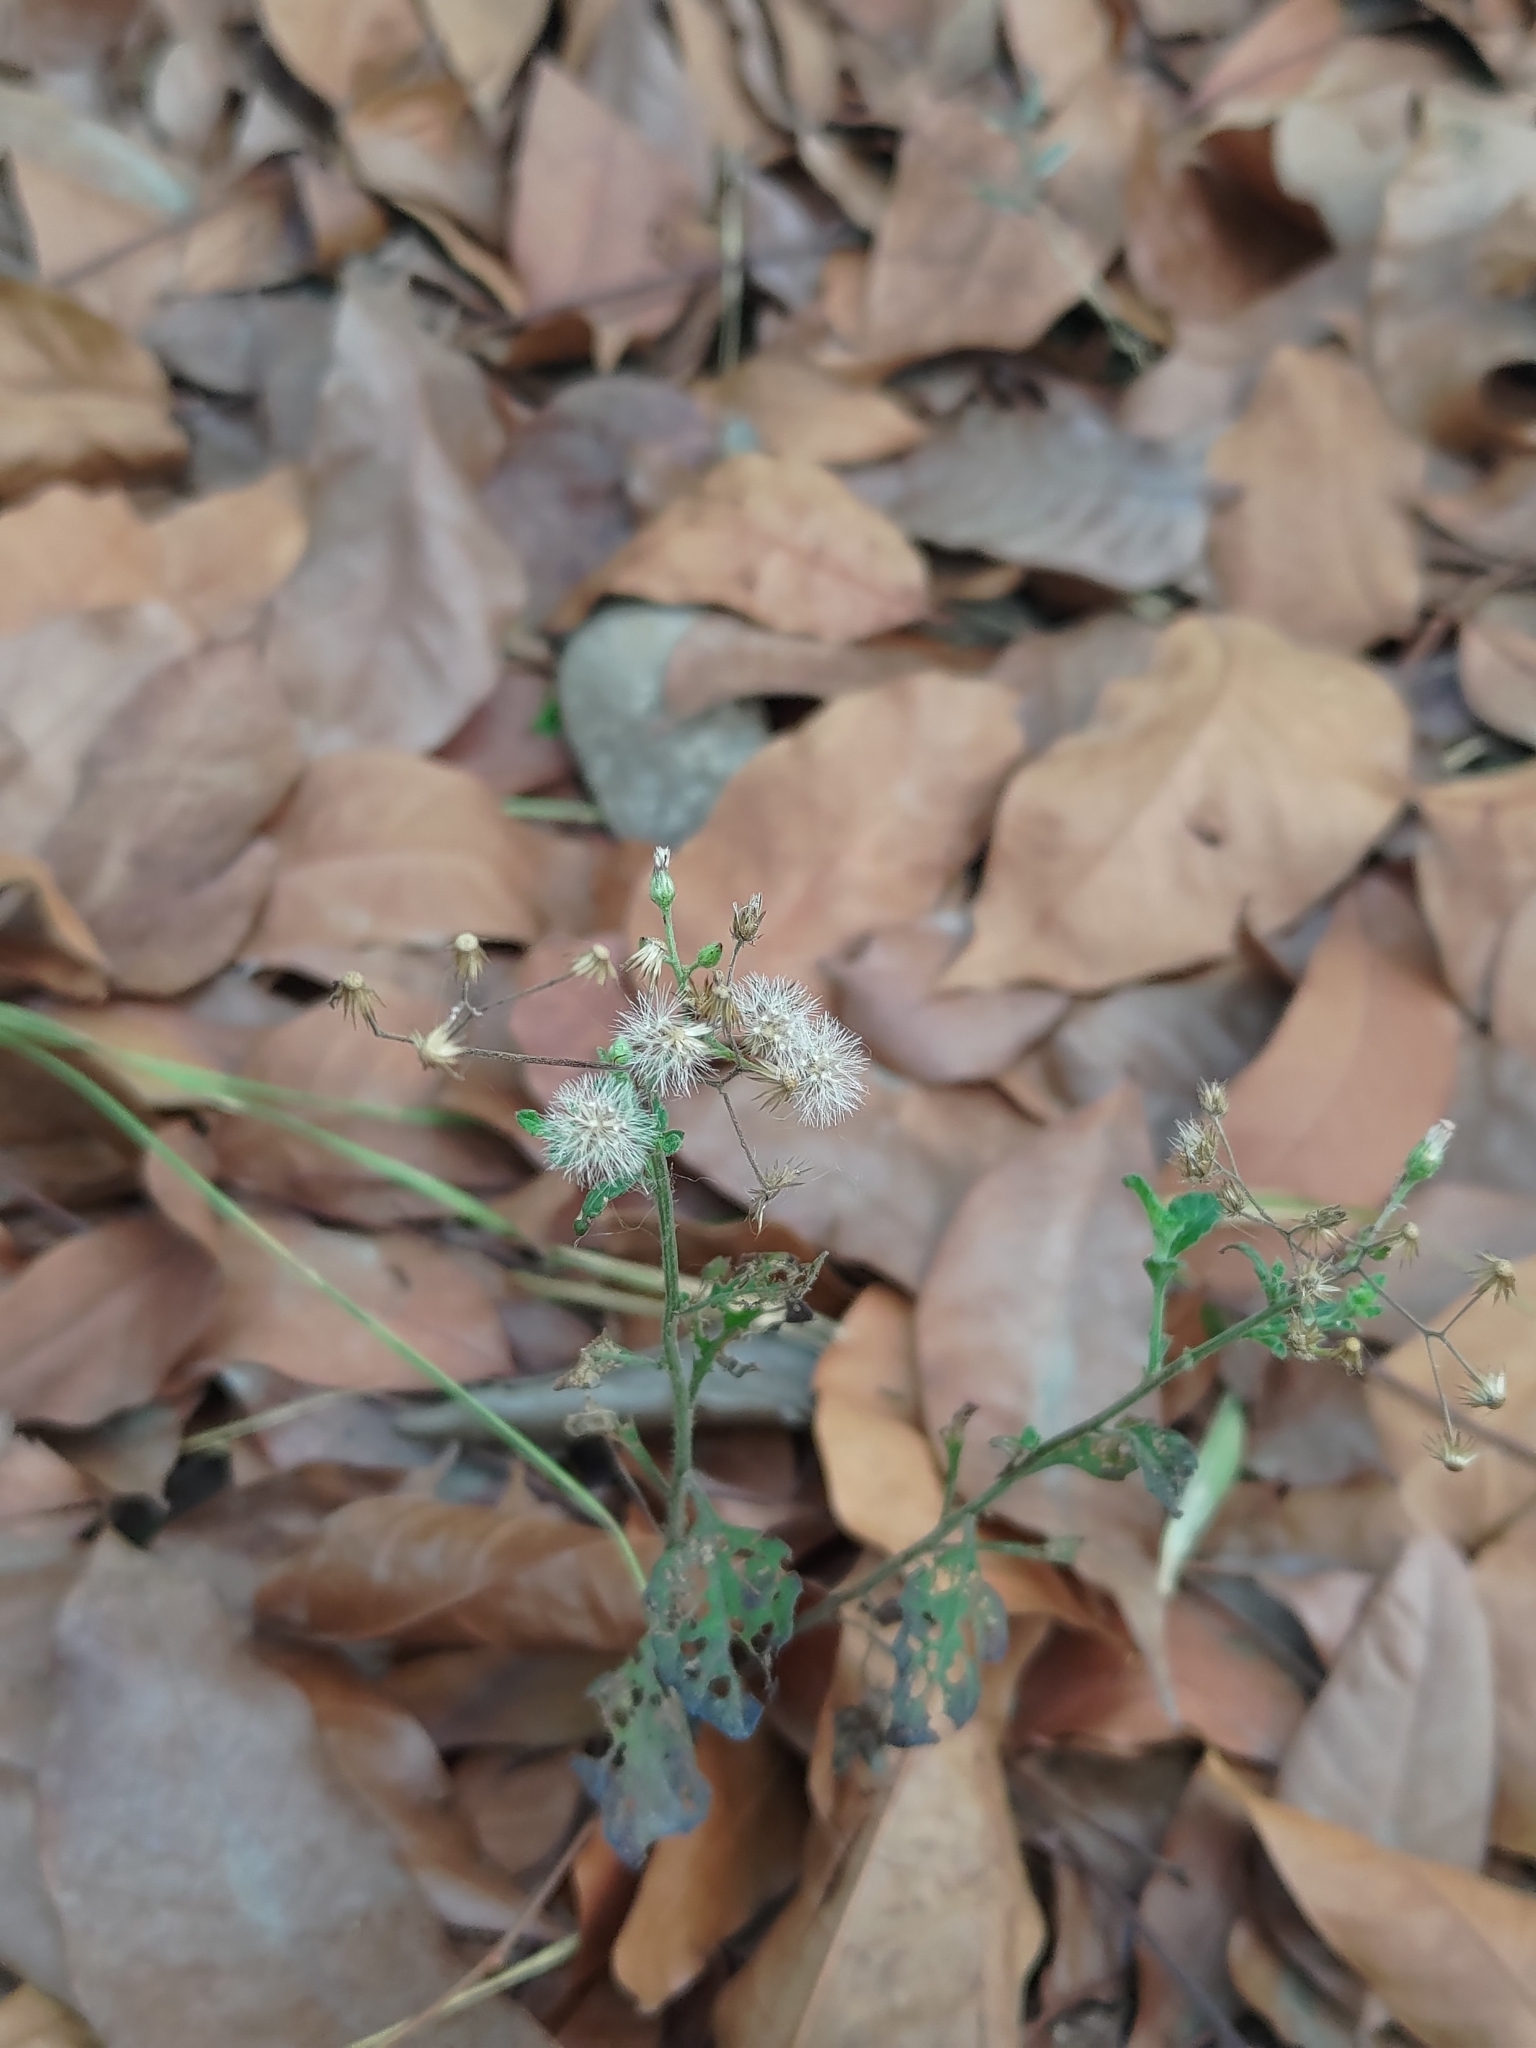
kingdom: Plantae
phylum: Tracheophyta
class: Magnoliopsida
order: Asterales
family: Asteraceae
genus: Cyanthillium
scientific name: Cyanthillium cinereum
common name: Little ironweed
